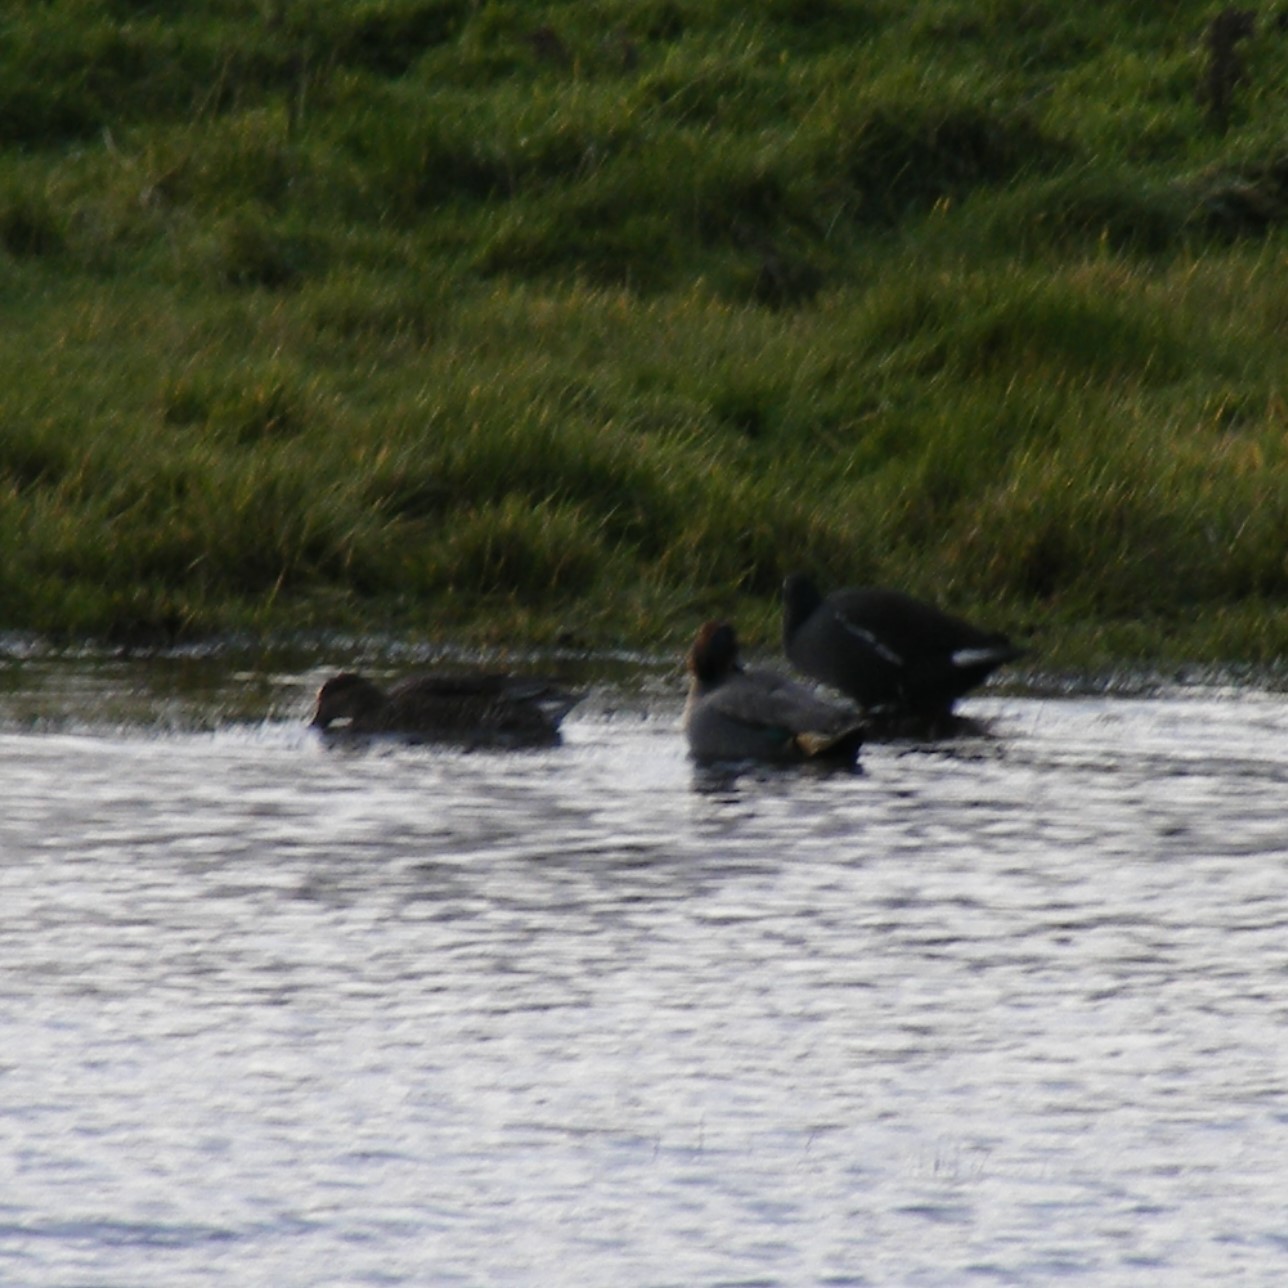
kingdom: Animalia
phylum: Chordata
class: Aves
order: Anseriformes
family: Anatidae
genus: Anas
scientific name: Anas crecca
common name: Eurasian teal
